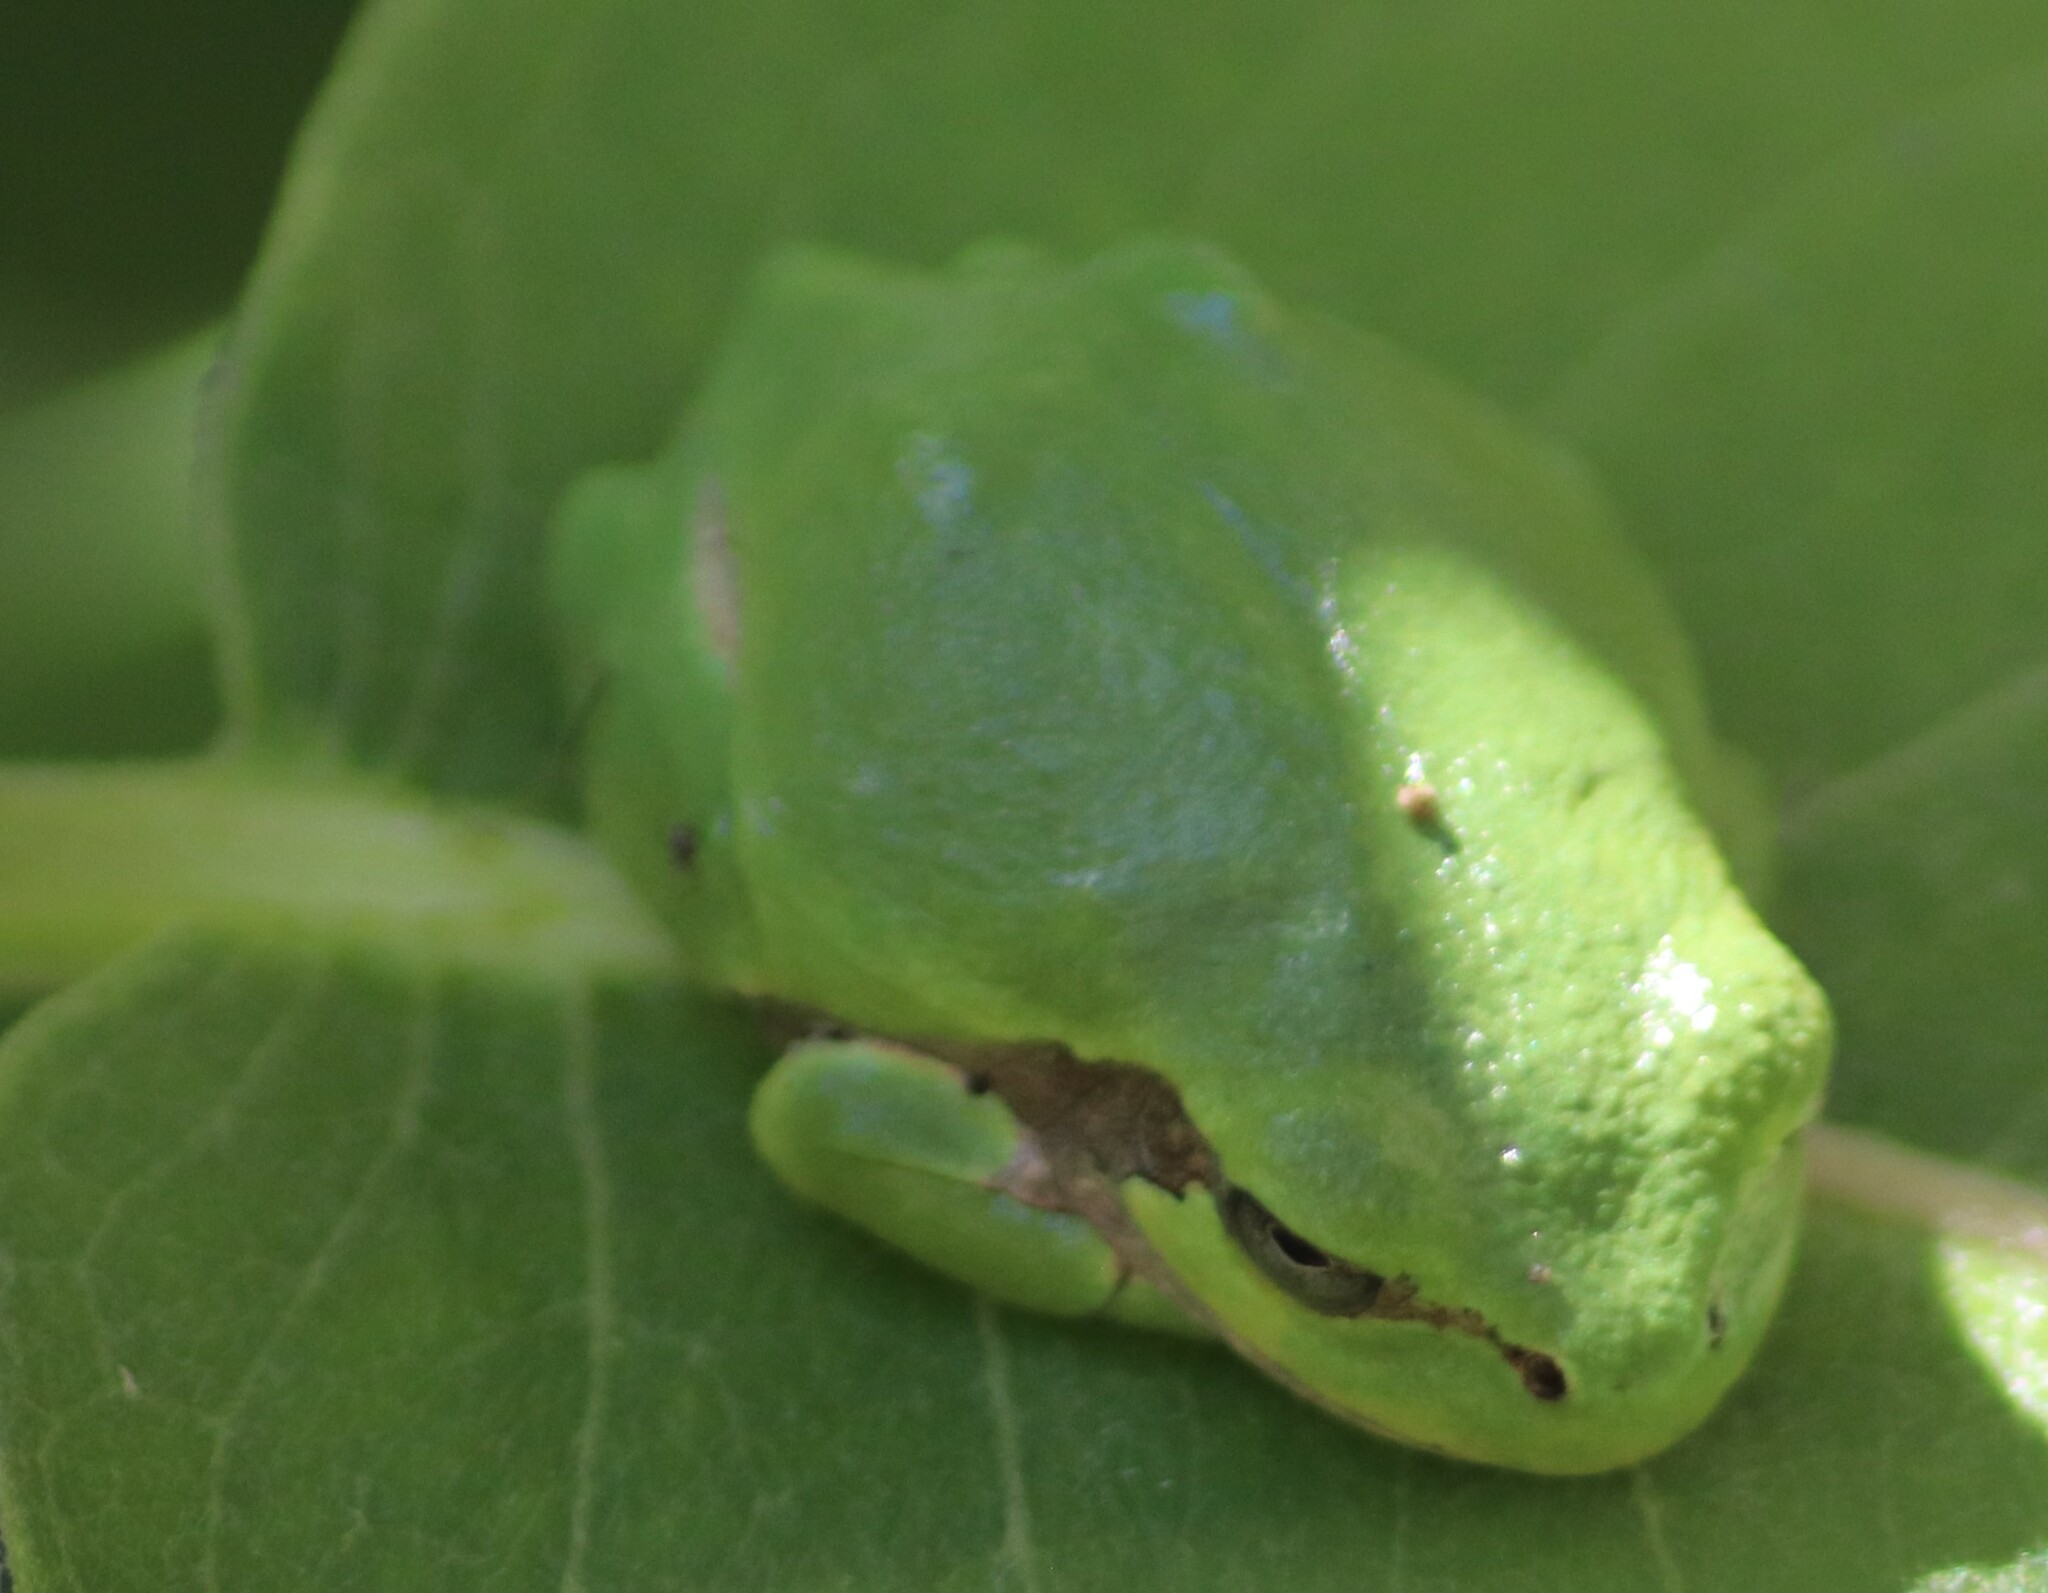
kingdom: Animalia
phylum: Chordata
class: Amphibia
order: Anura
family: Hylidae
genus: Dryophytes
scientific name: Dryophytes versicolor
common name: Gray treefrog
